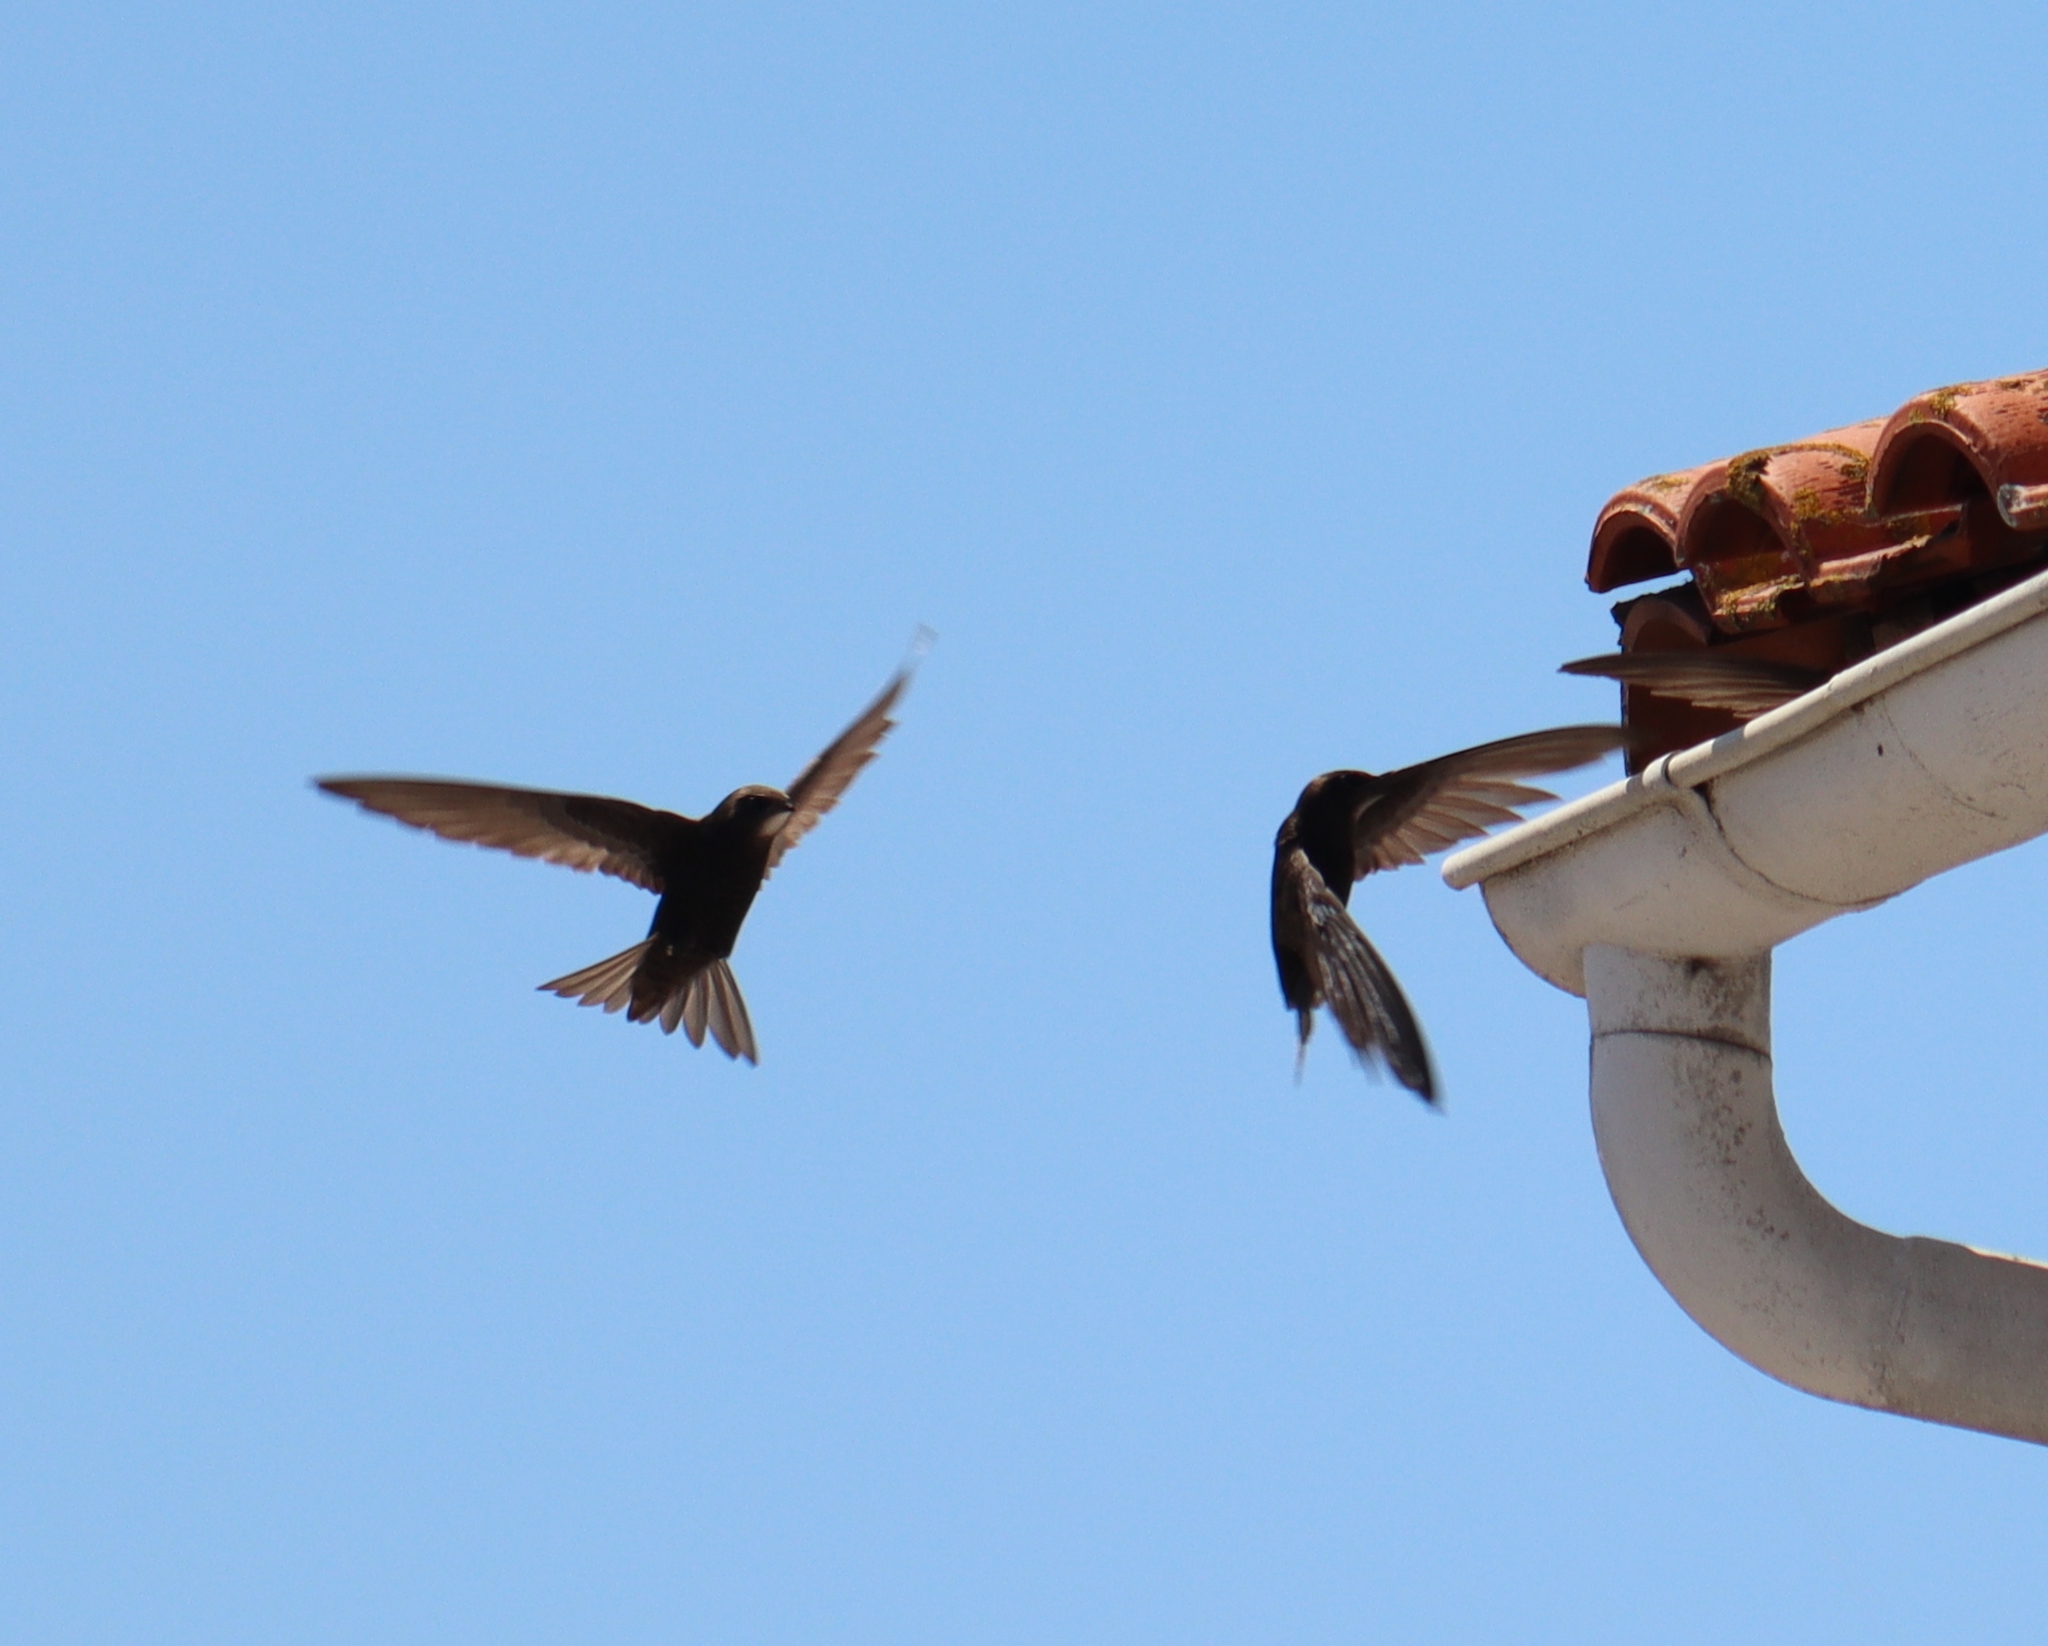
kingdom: Animalia
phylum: Chordata
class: Aves
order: Apodiformes
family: Apodidae
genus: Apus
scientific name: Apus apus
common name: Common swift
